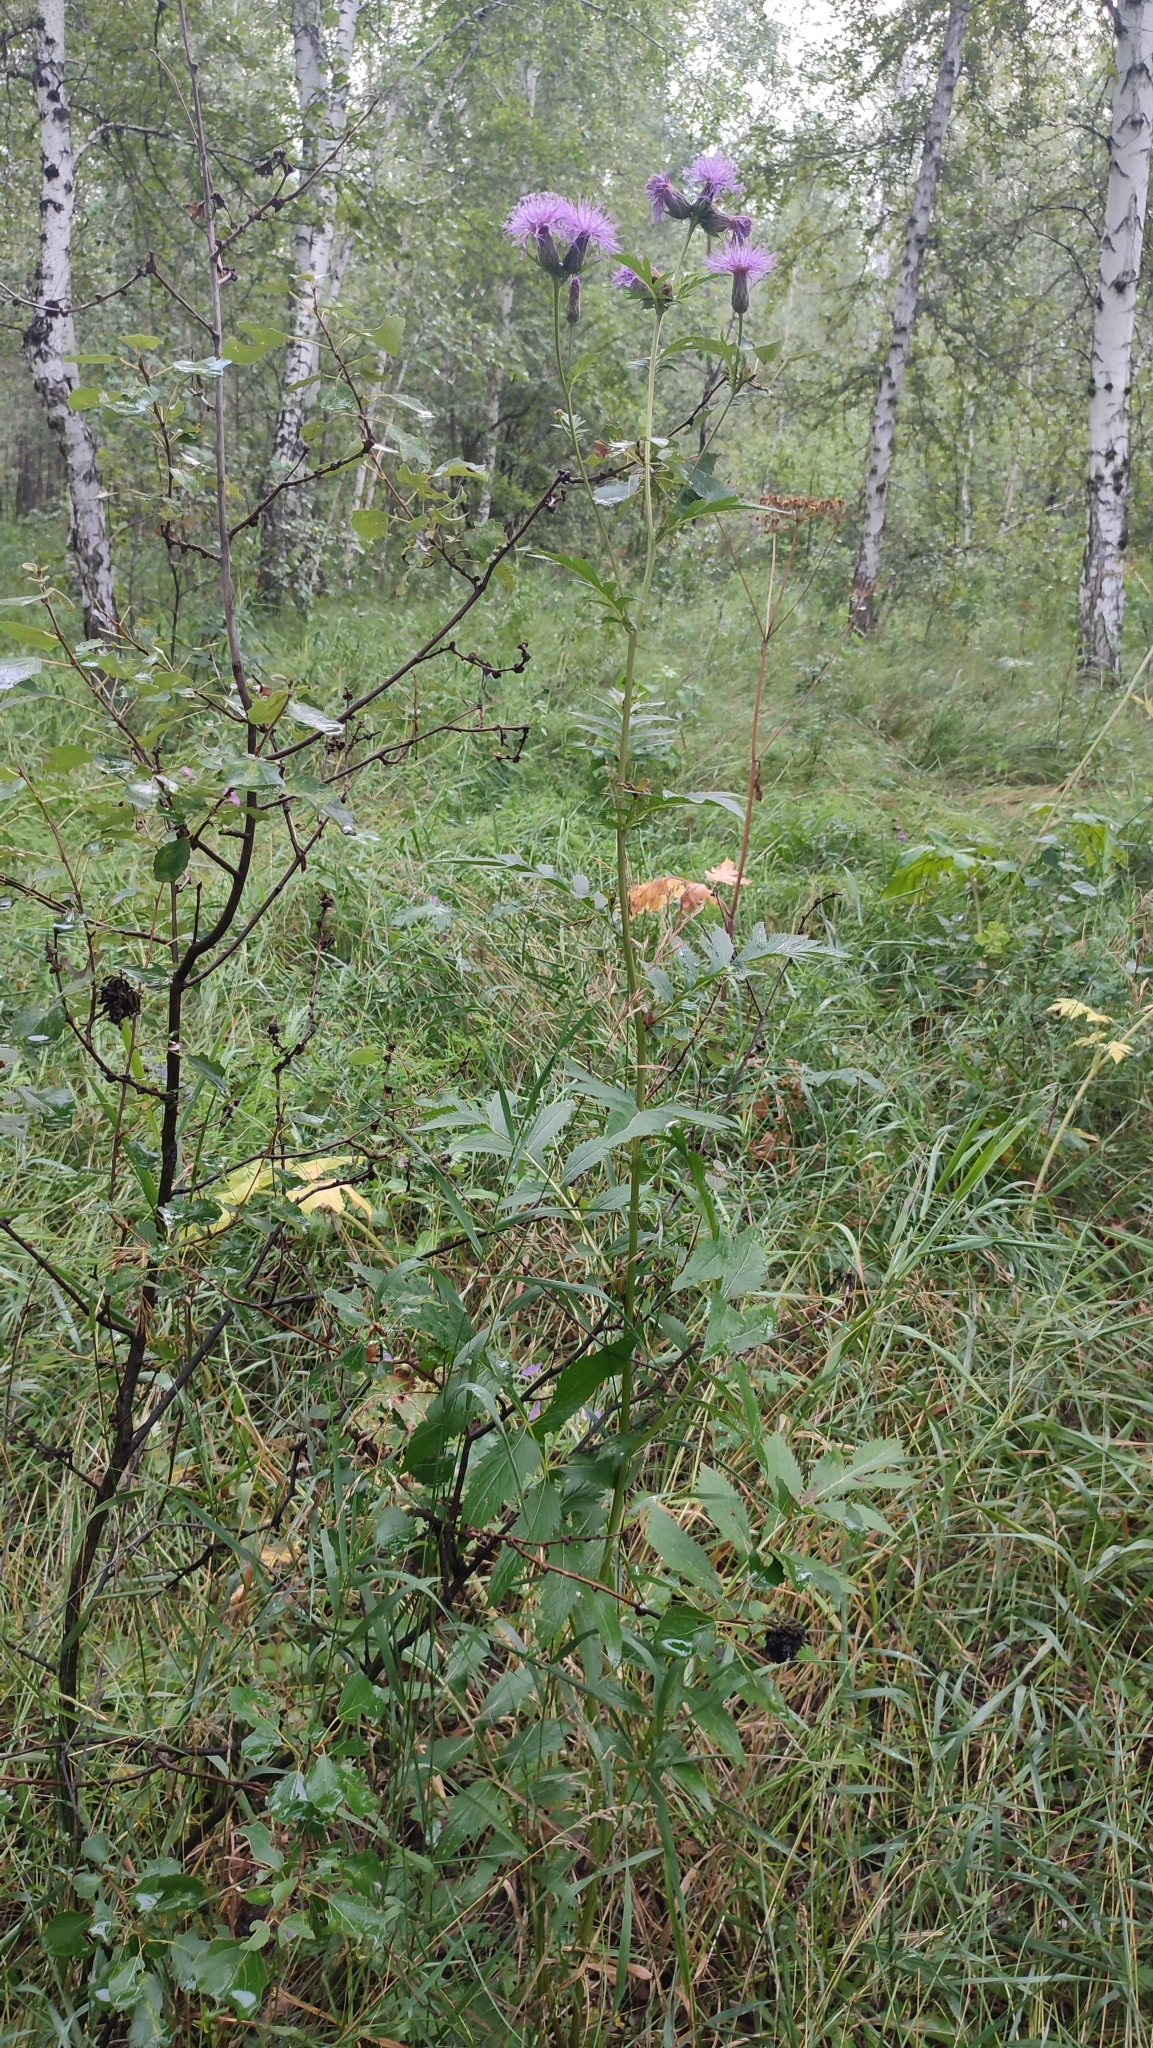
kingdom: Plantae
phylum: Tracheophyta
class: Magnoliopsida
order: Asterales
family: Asteraceae
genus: Serratula
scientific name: Serratula coronata
